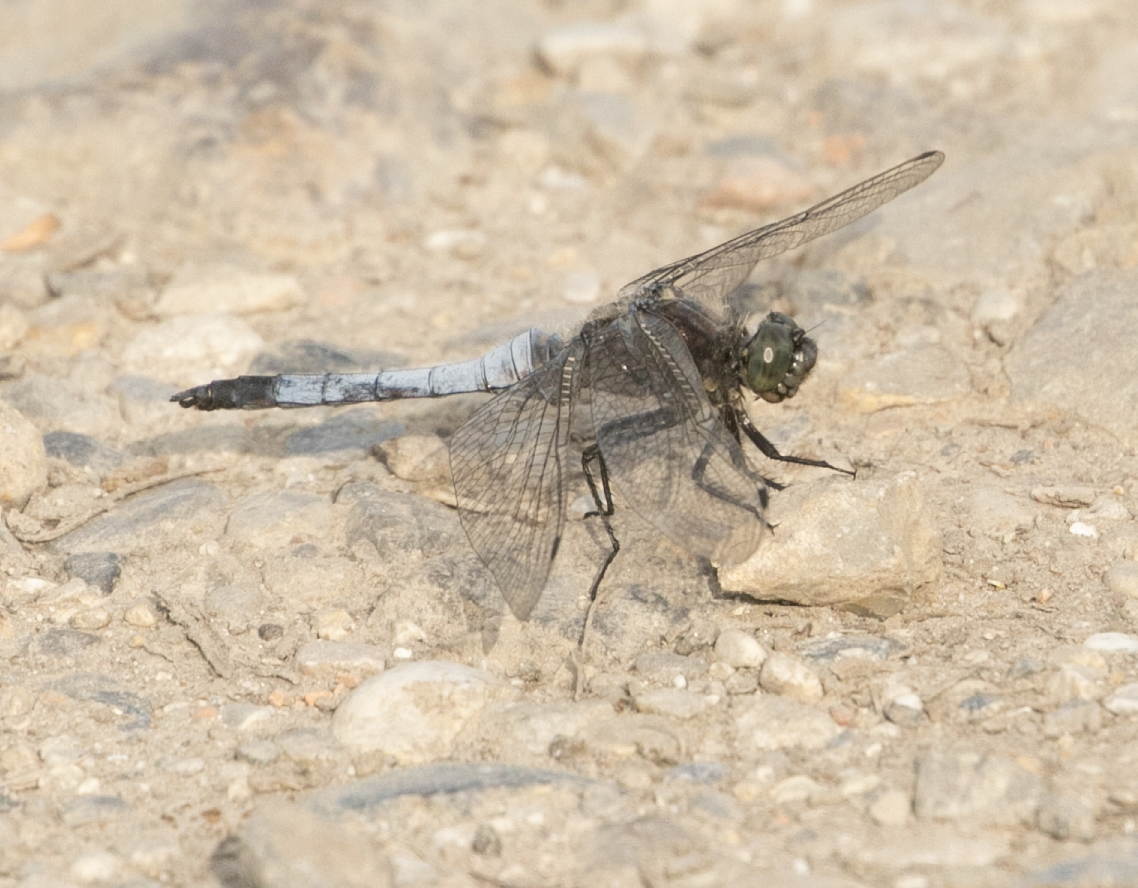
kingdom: Animalia
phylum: Arthropoda
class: Insecta
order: Odonata
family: Libellulidae
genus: Orthetrum
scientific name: Orthetrum cancellatum
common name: Black-tailed skimmer
